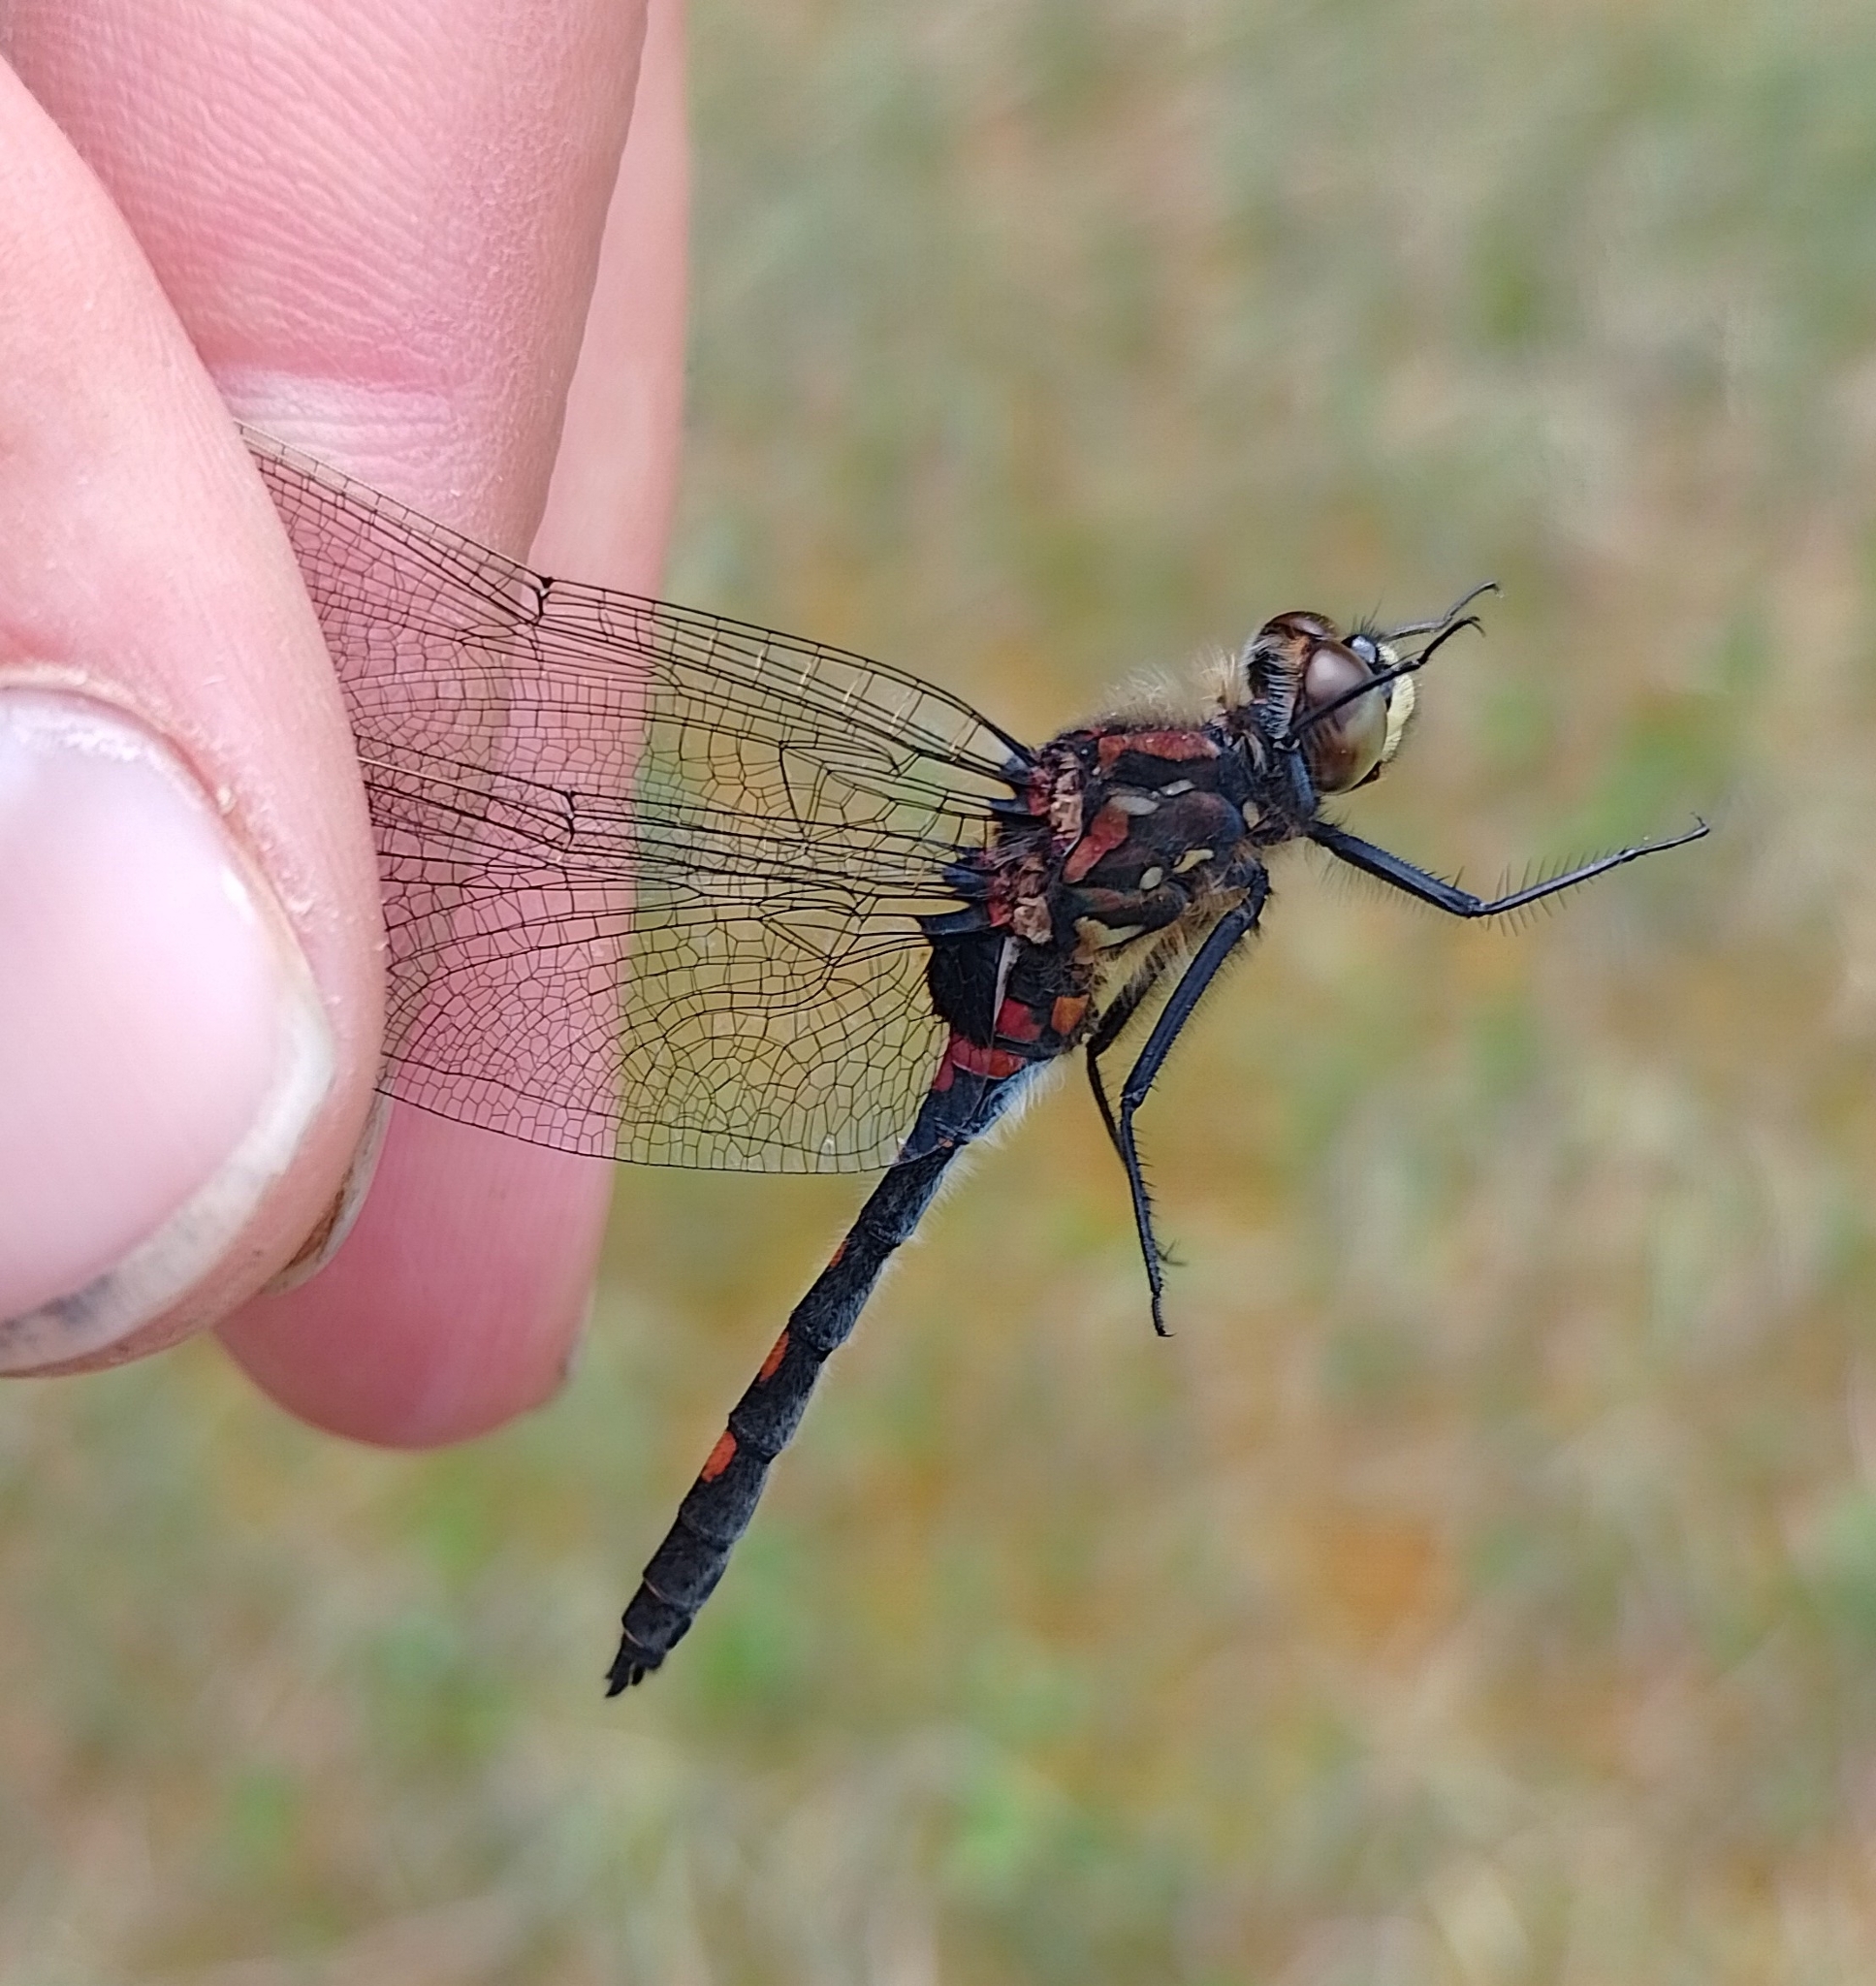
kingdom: Animalia
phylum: Arthropoda
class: Insecta
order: Odonata
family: Libellulidae
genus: Leucorrhinia
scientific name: Leucorrhinia dubia
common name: White-faced darter
